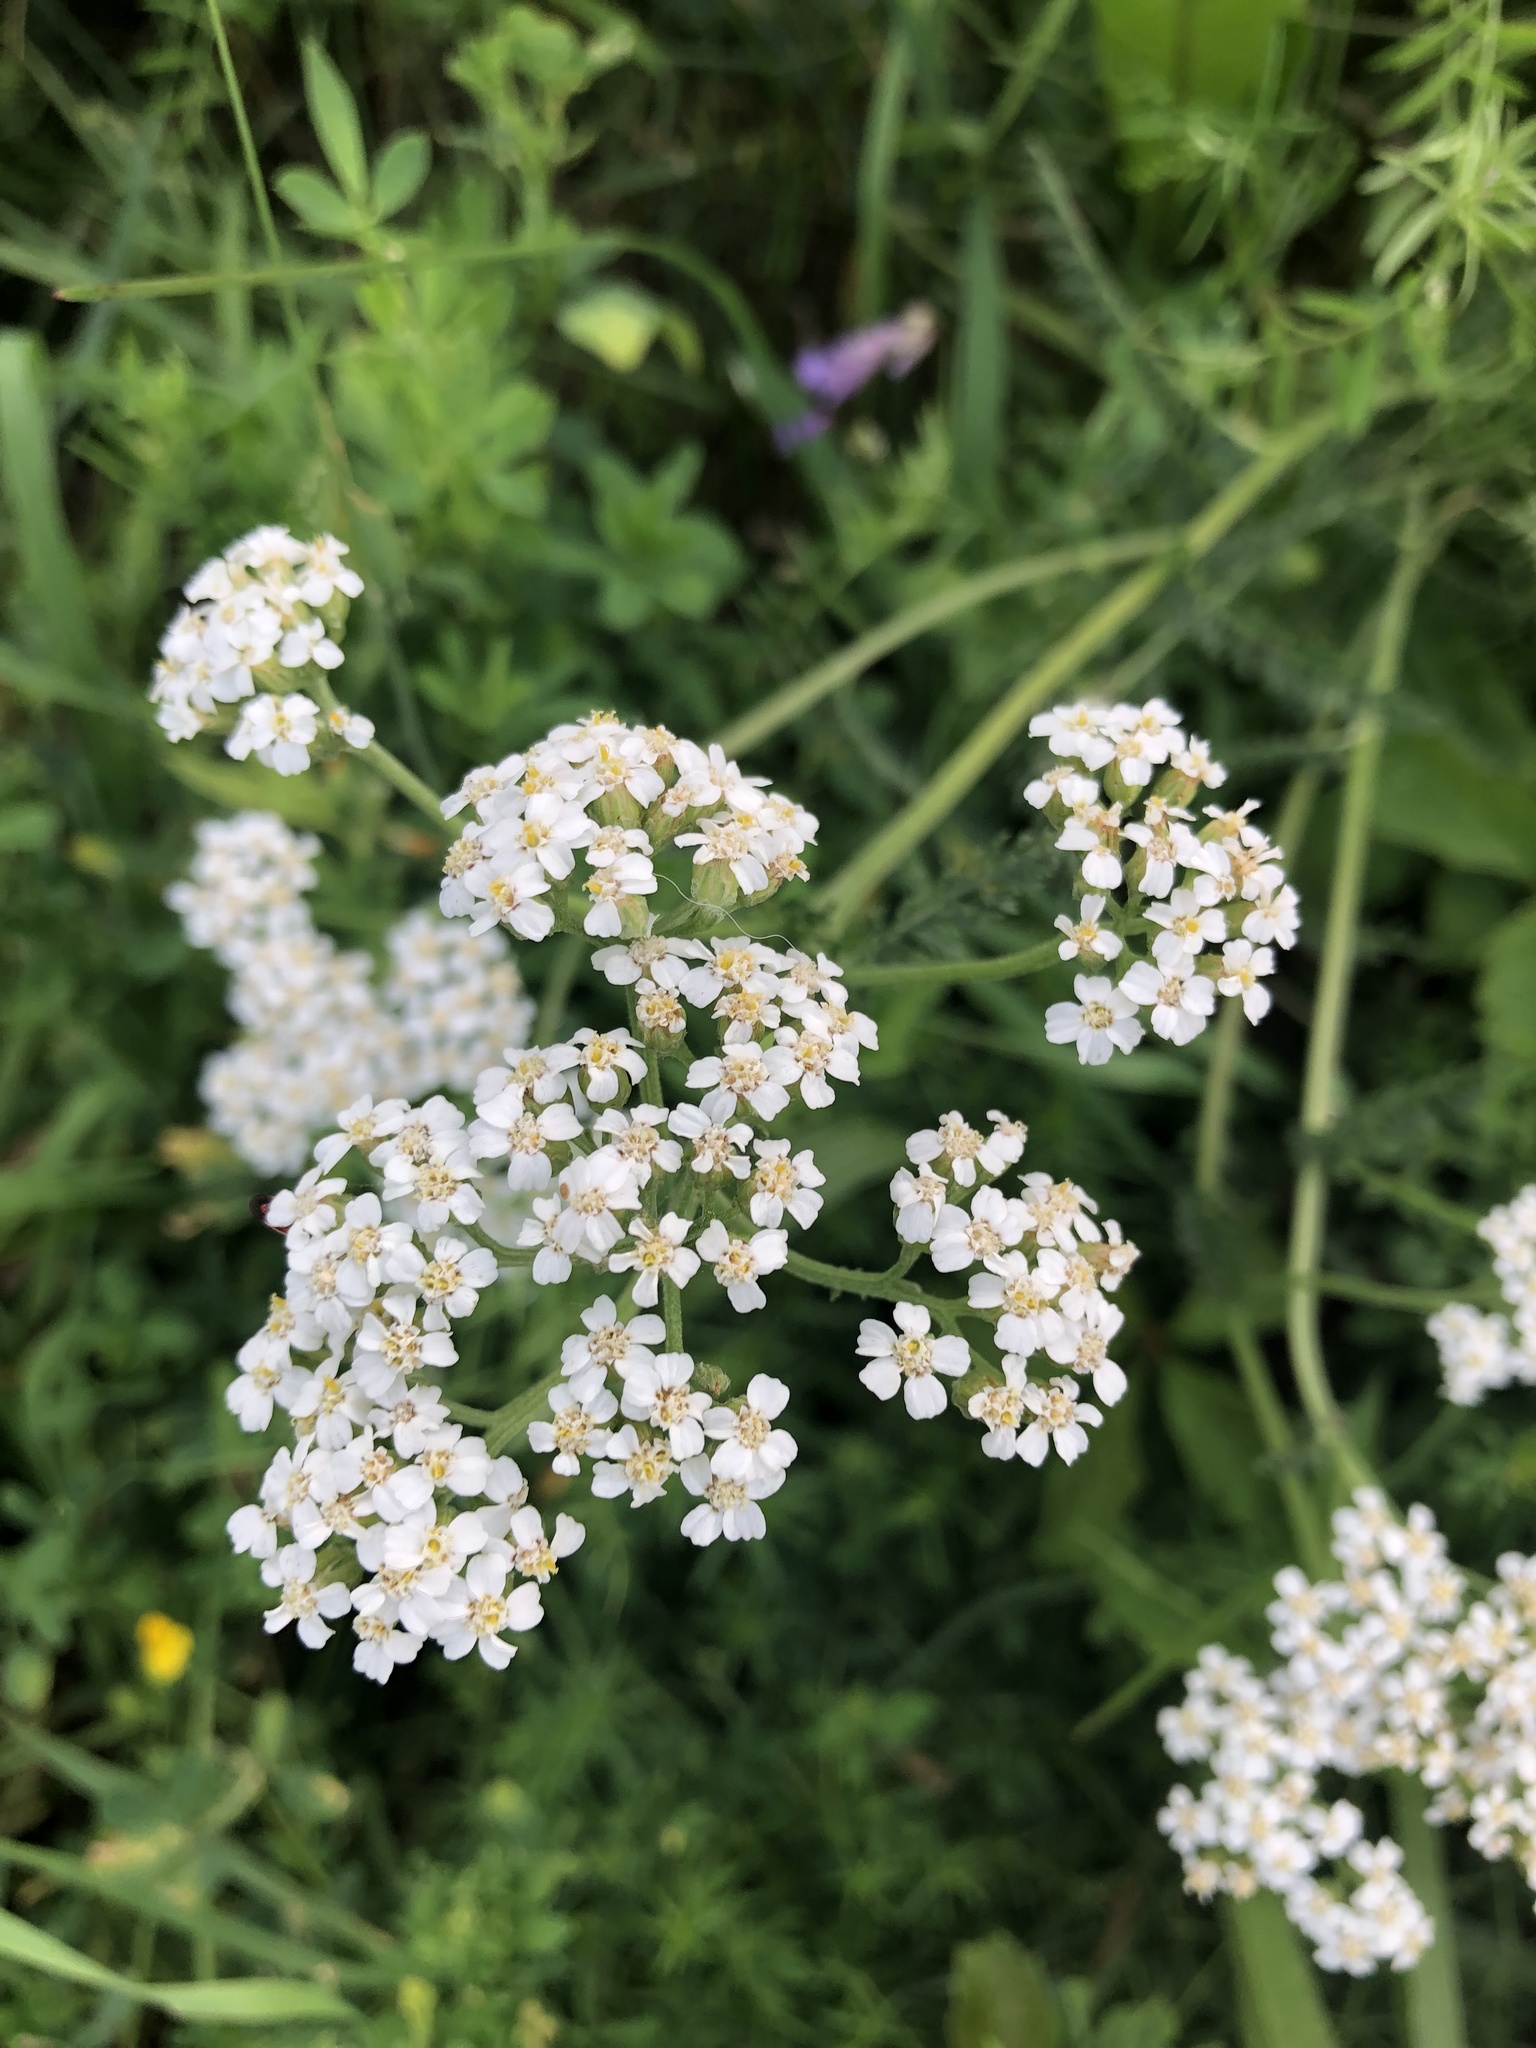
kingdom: Plantae
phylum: Tracheophyta
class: Magnoliopsida
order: Asterales
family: Asteraceae
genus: Achillea
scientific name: Achillea millefolium
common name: Yarrow
